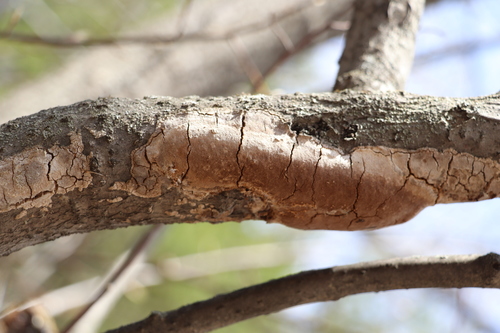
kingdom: Fungi
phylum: Basidiomycota
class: Agaricomycetes
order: Hymenochaetales
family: Hymenochaetaceae
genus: Fomitiporia
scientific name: Fomitiporia punctata
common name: Elbowpatch crust
